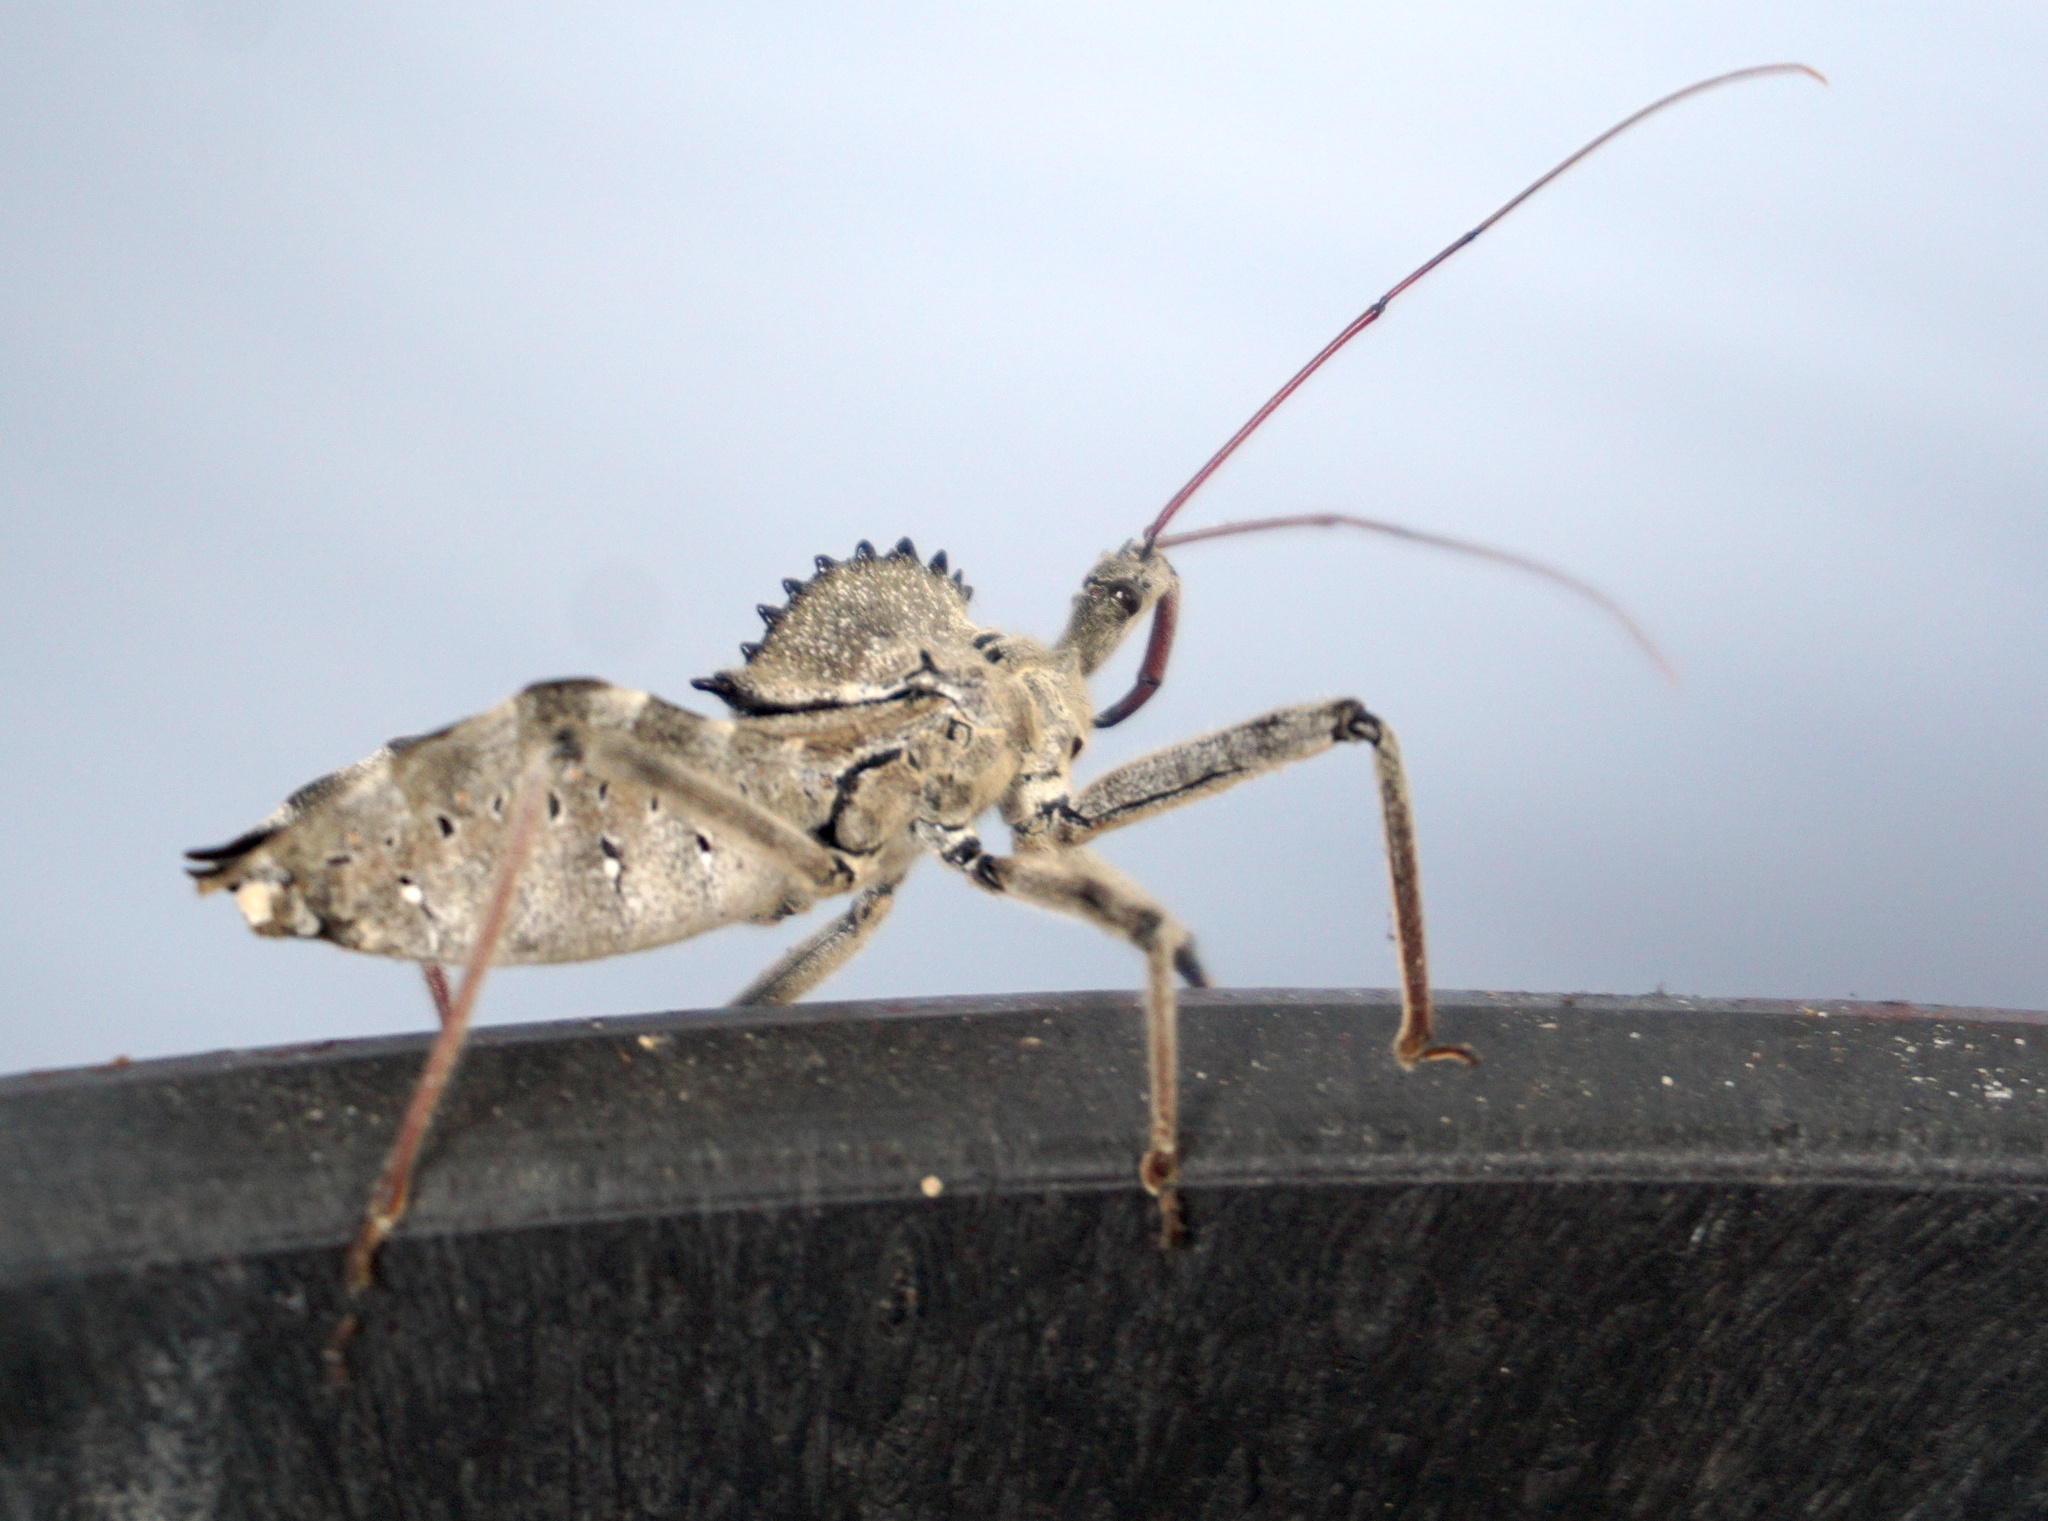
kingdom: Animalia
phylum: Arthropoda
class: Insecta
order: Hemiptera
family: Reduviidae
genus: Arilus
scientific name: Arilus cristatus
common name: North american wheel bug
